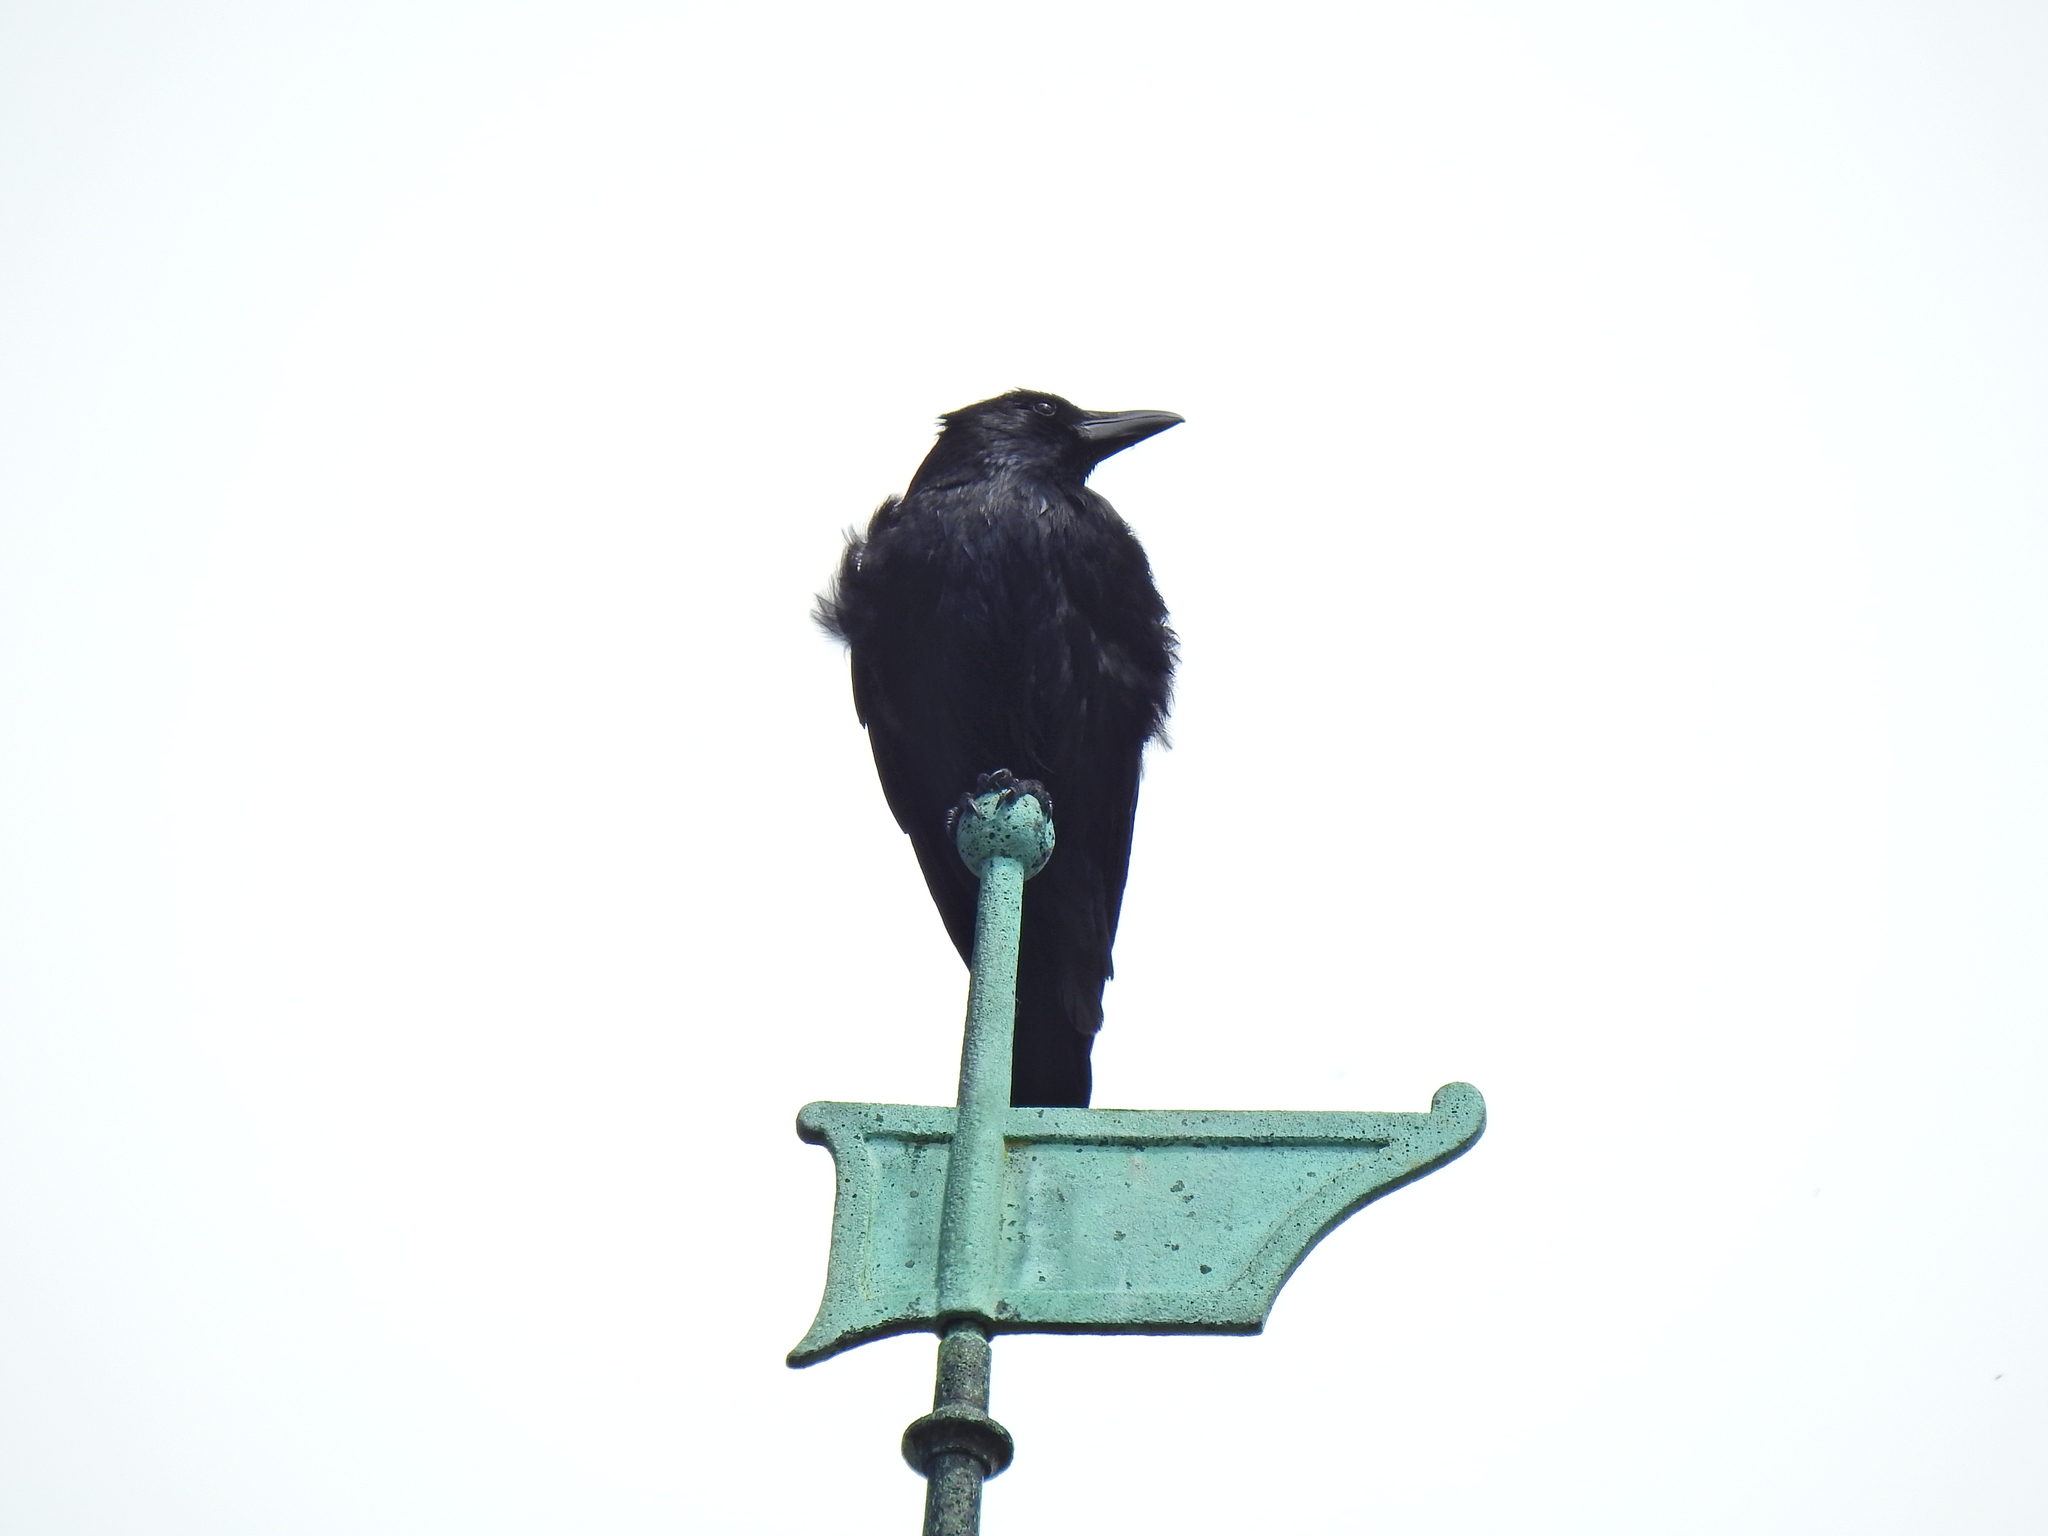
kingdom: Animalia
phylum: Chordata
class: Aves
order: Passeriformes
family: Corvidae
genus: Corvus
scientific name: Corvus corone
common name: Carrion crow
